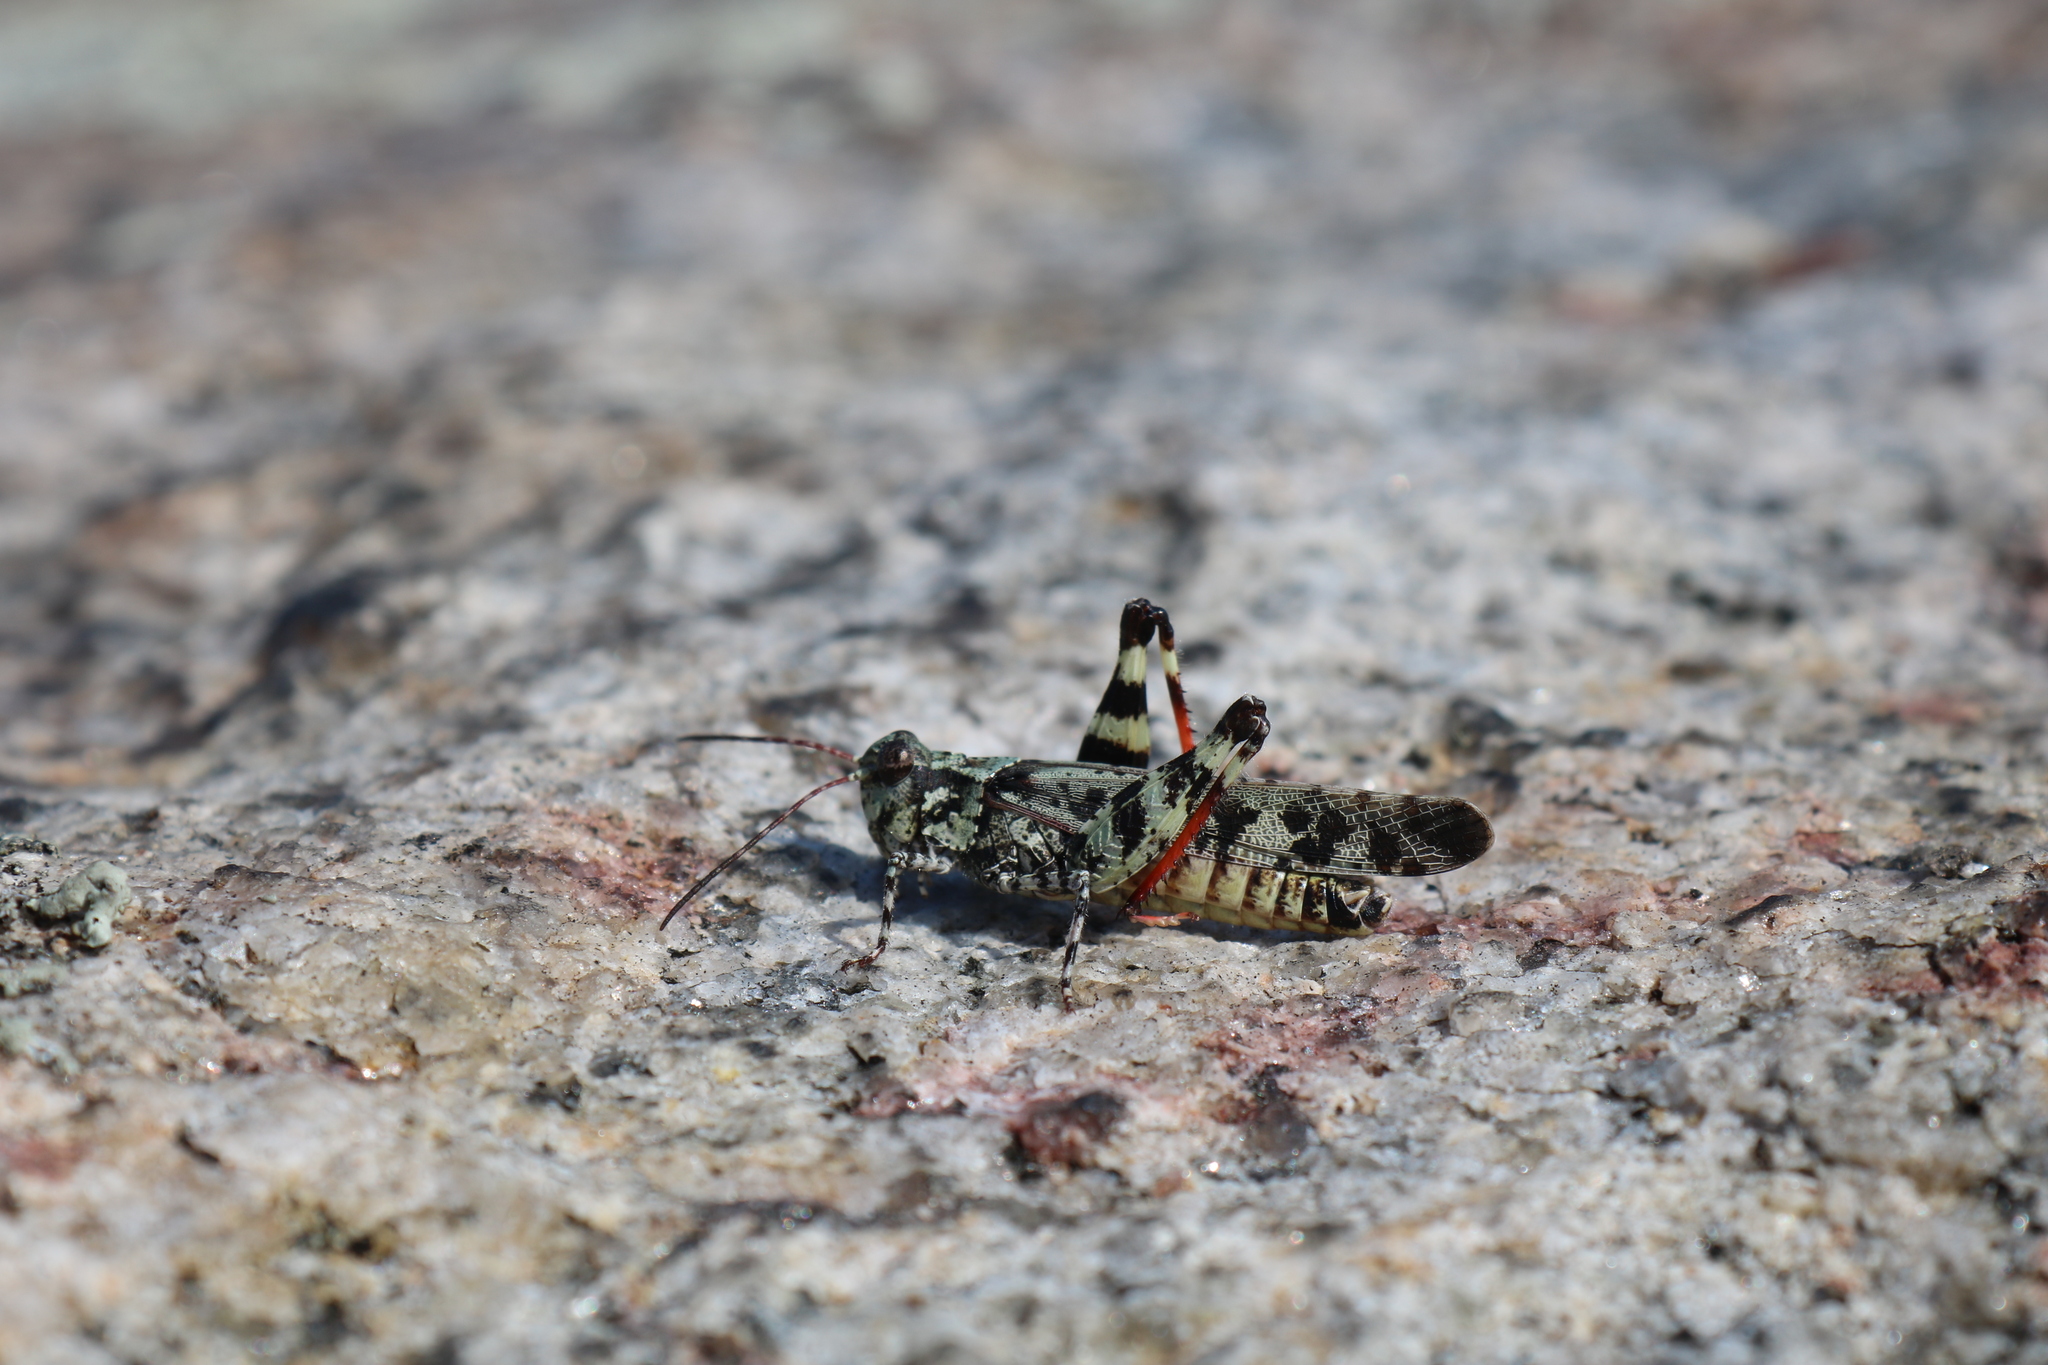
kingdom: Animalia
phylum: Arthropoda
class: Insecta
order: Orthoptera
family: Acrididae
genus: Spharagemon
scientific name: Spharagemon marmoratum
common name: Marbled grasshopper
